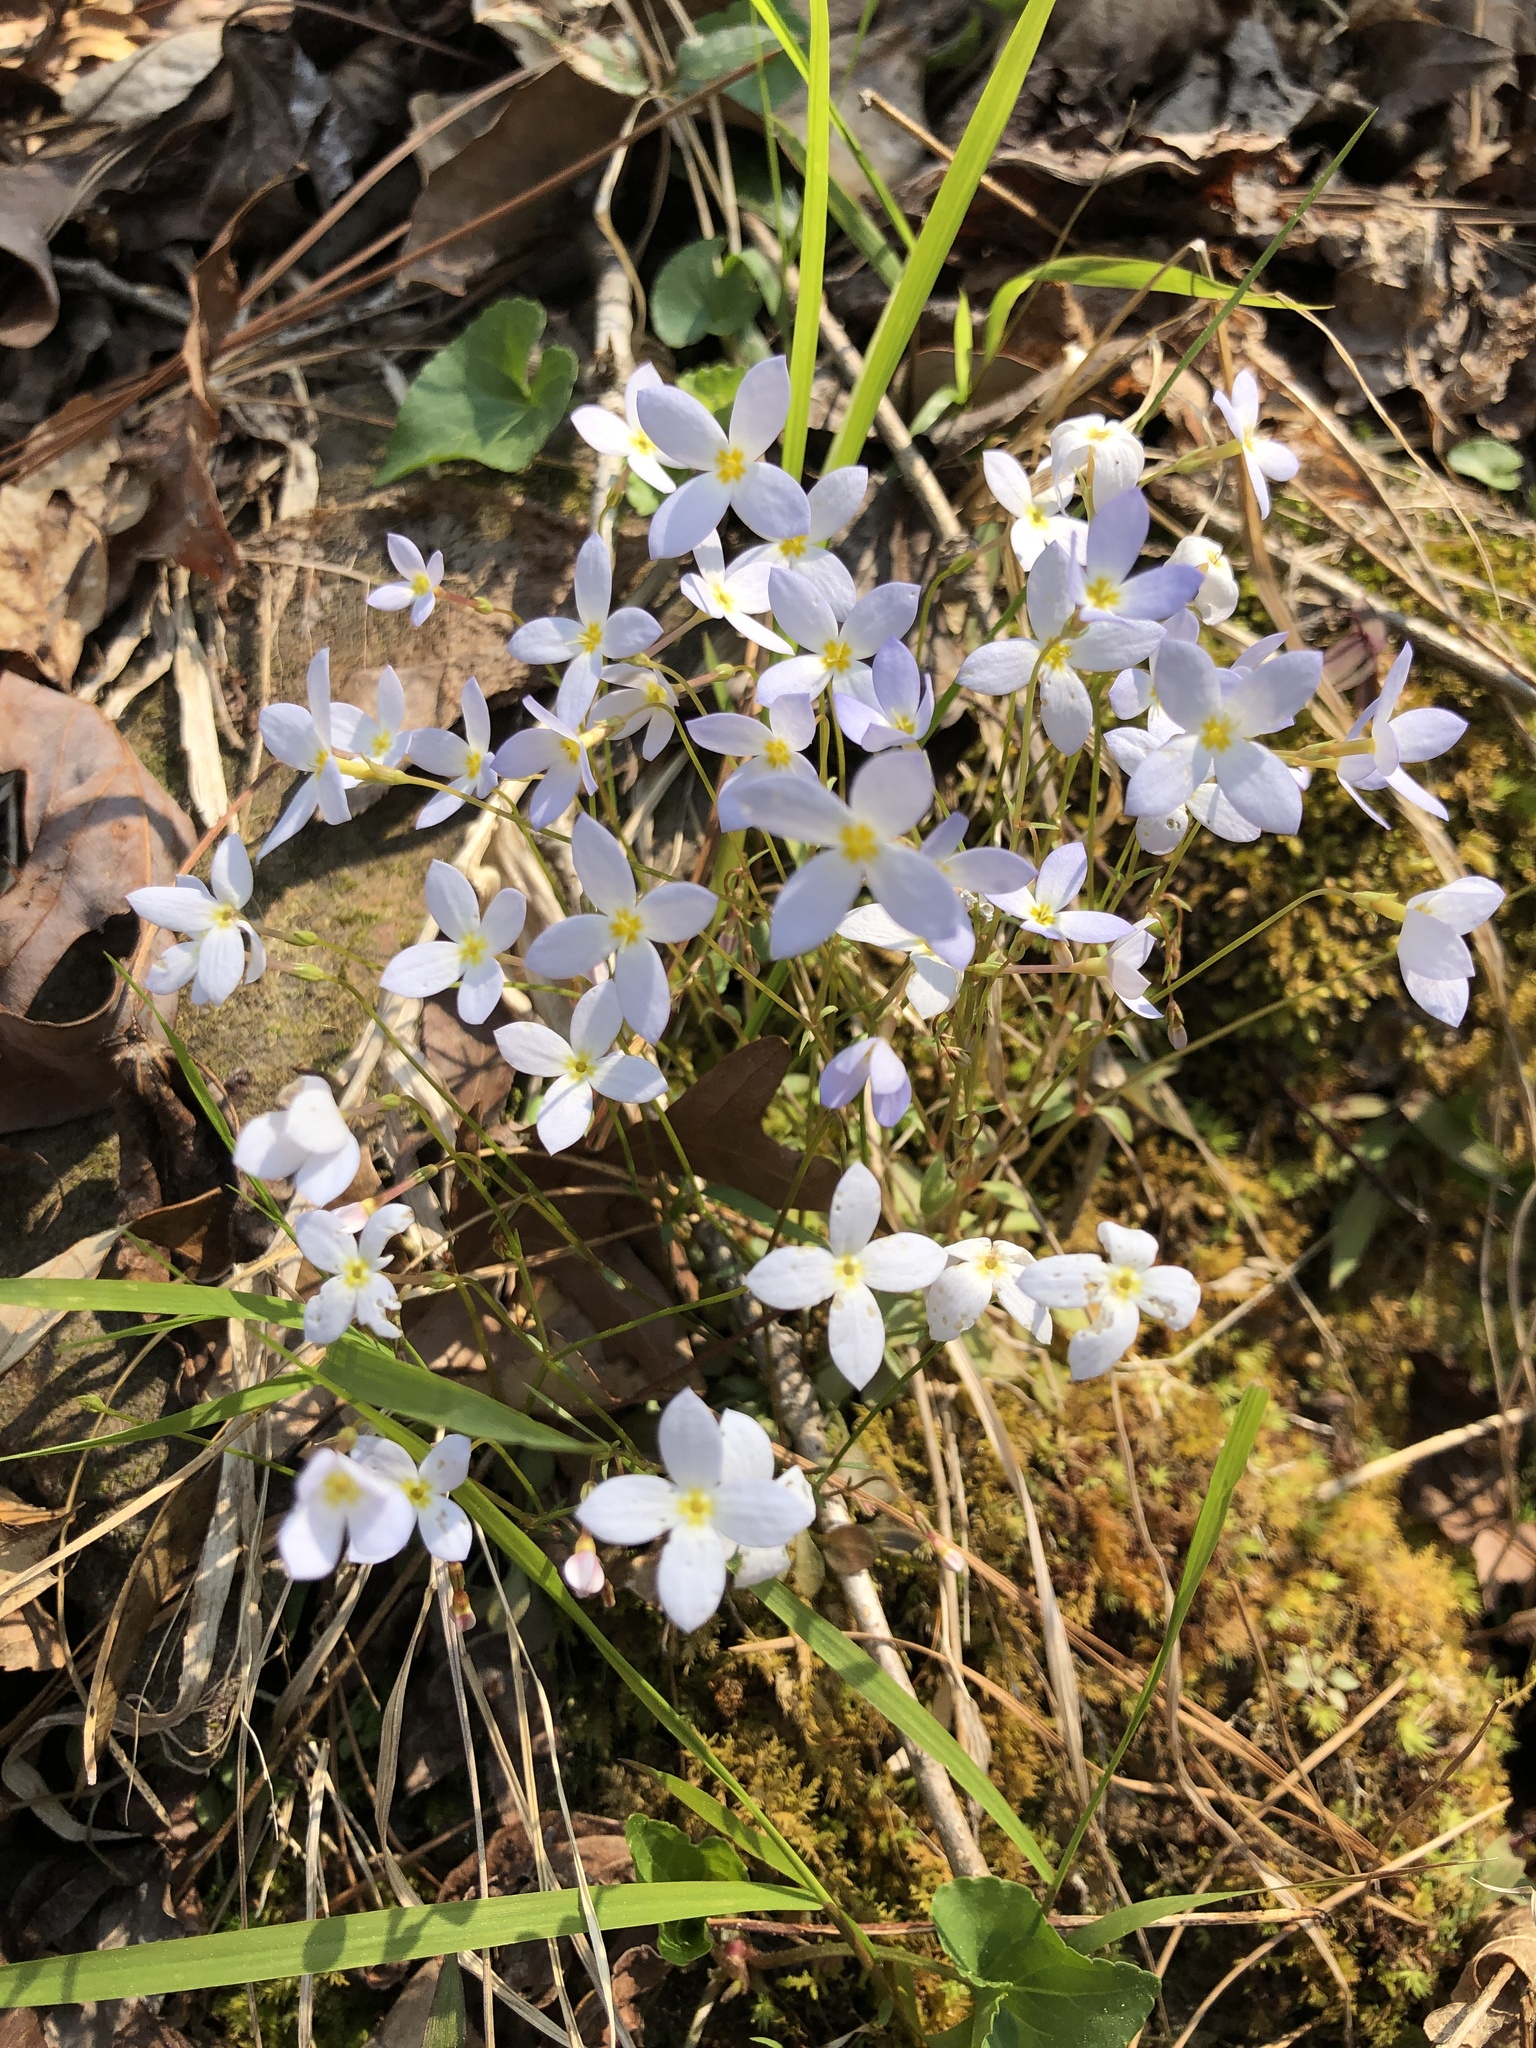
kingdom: Plantae
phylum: Tracheophyta
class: Magnoliopsida
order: Gentianales
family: Rubiaceae
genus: Houstonia
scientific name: Houstonia caerulea
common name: Bluets
